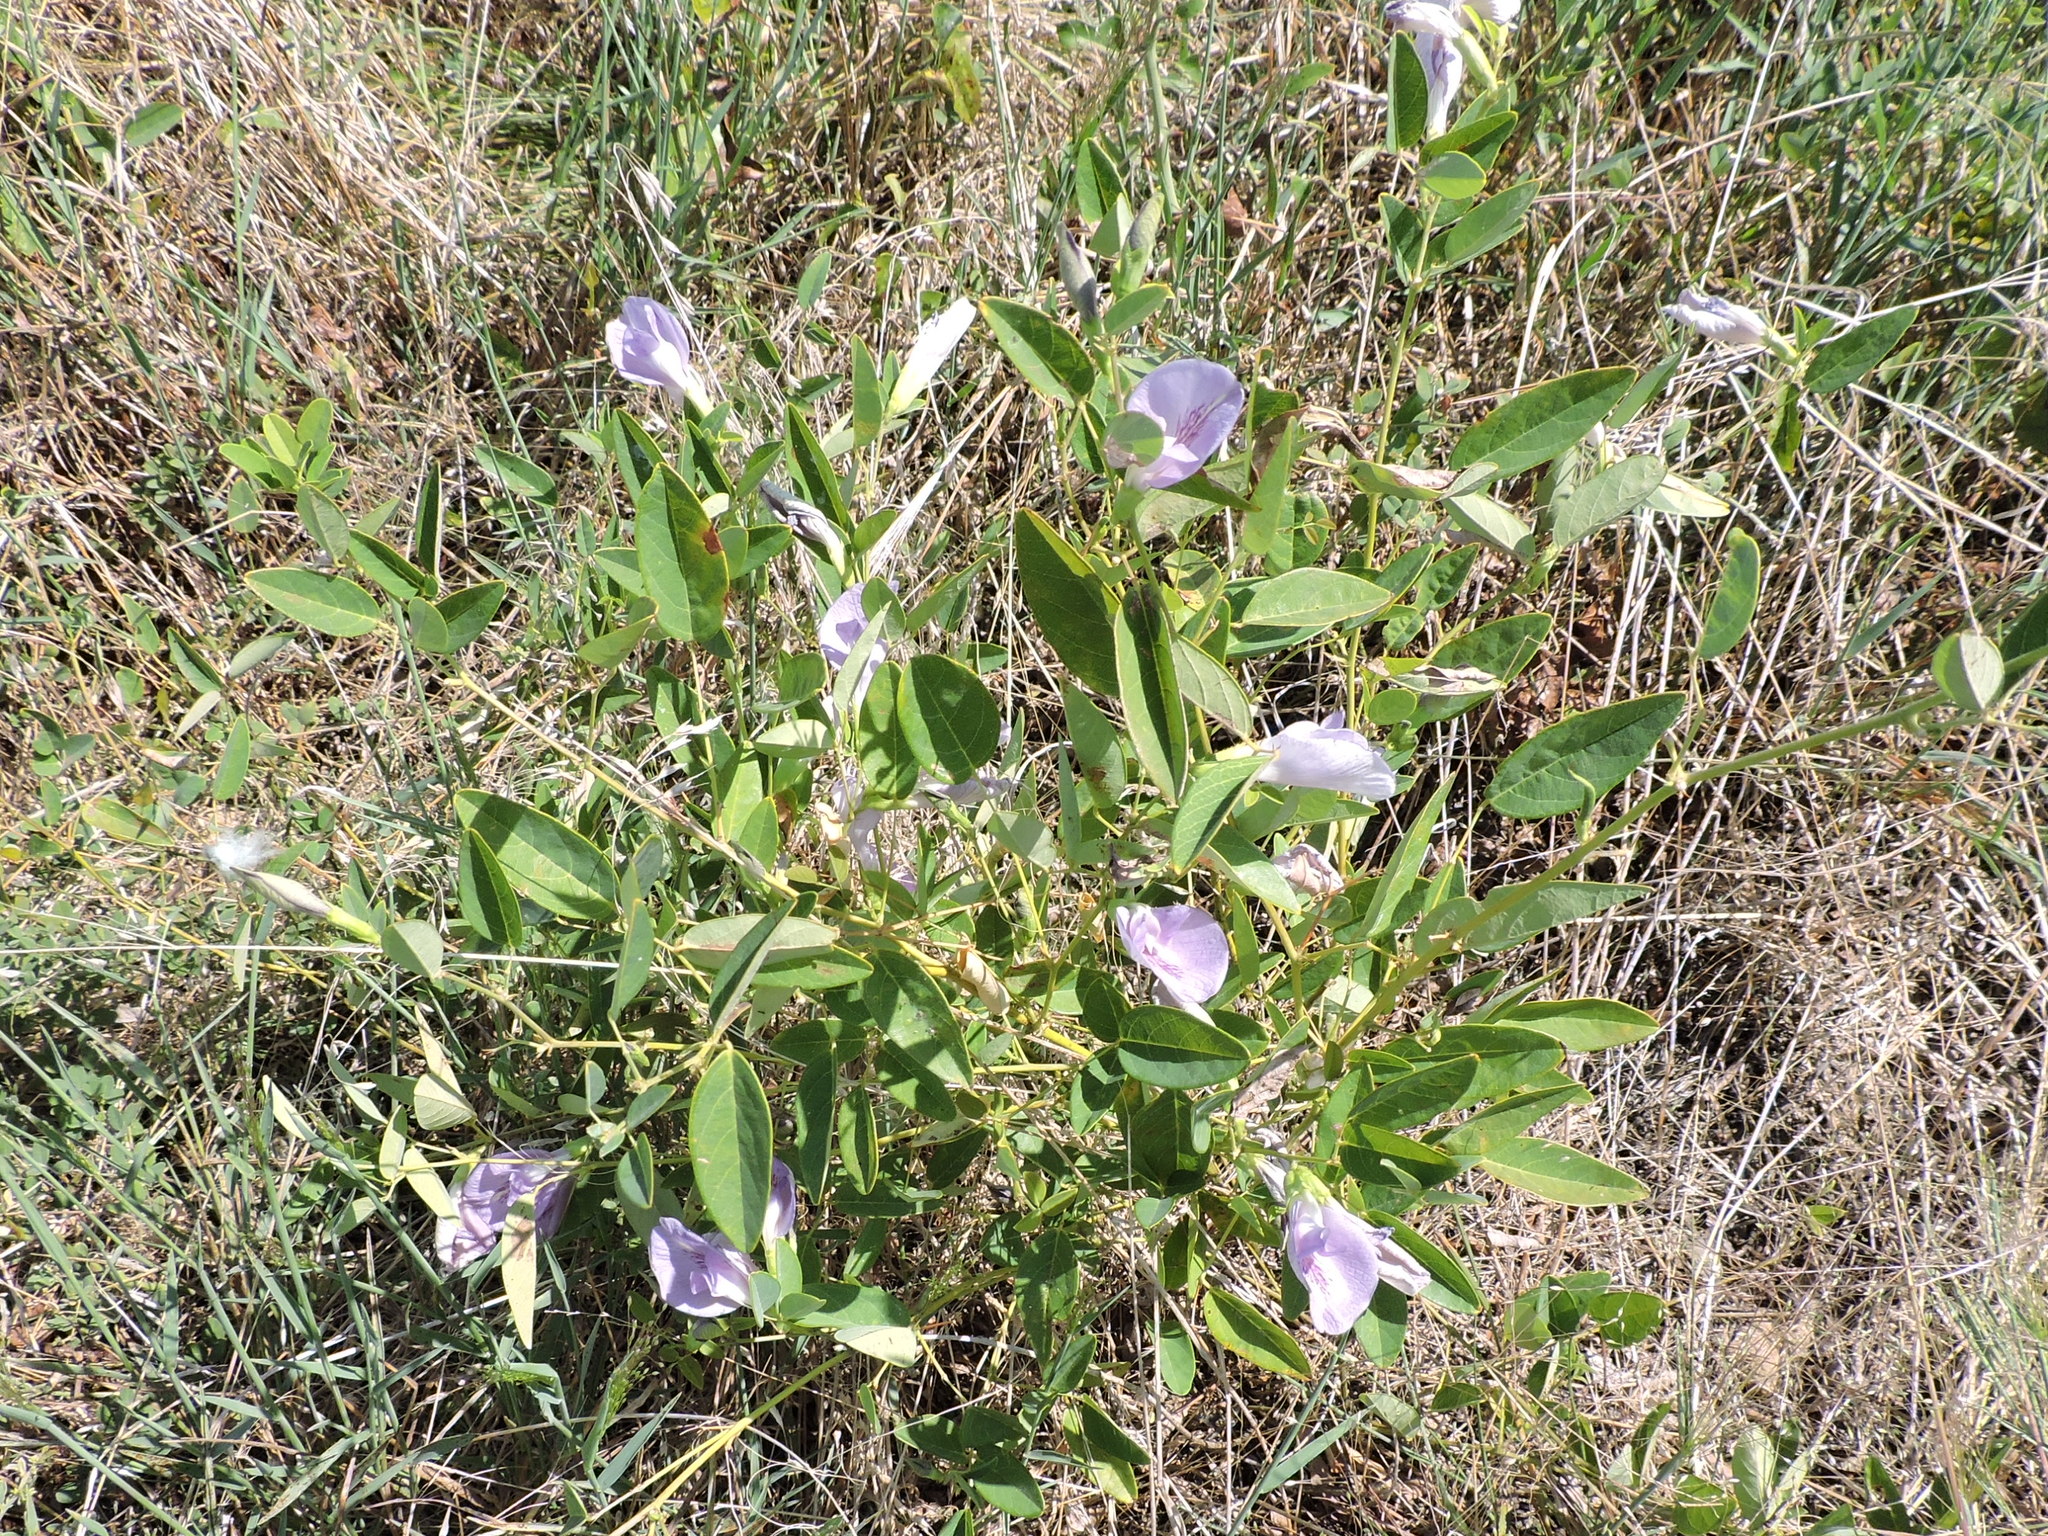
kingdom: Plantae
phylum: Tracheophyta
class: Magnoliopsida
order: Fabales
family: Fabaceae
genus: Clitoria
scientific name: Clitoria mariana
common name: Butterfly-pea
